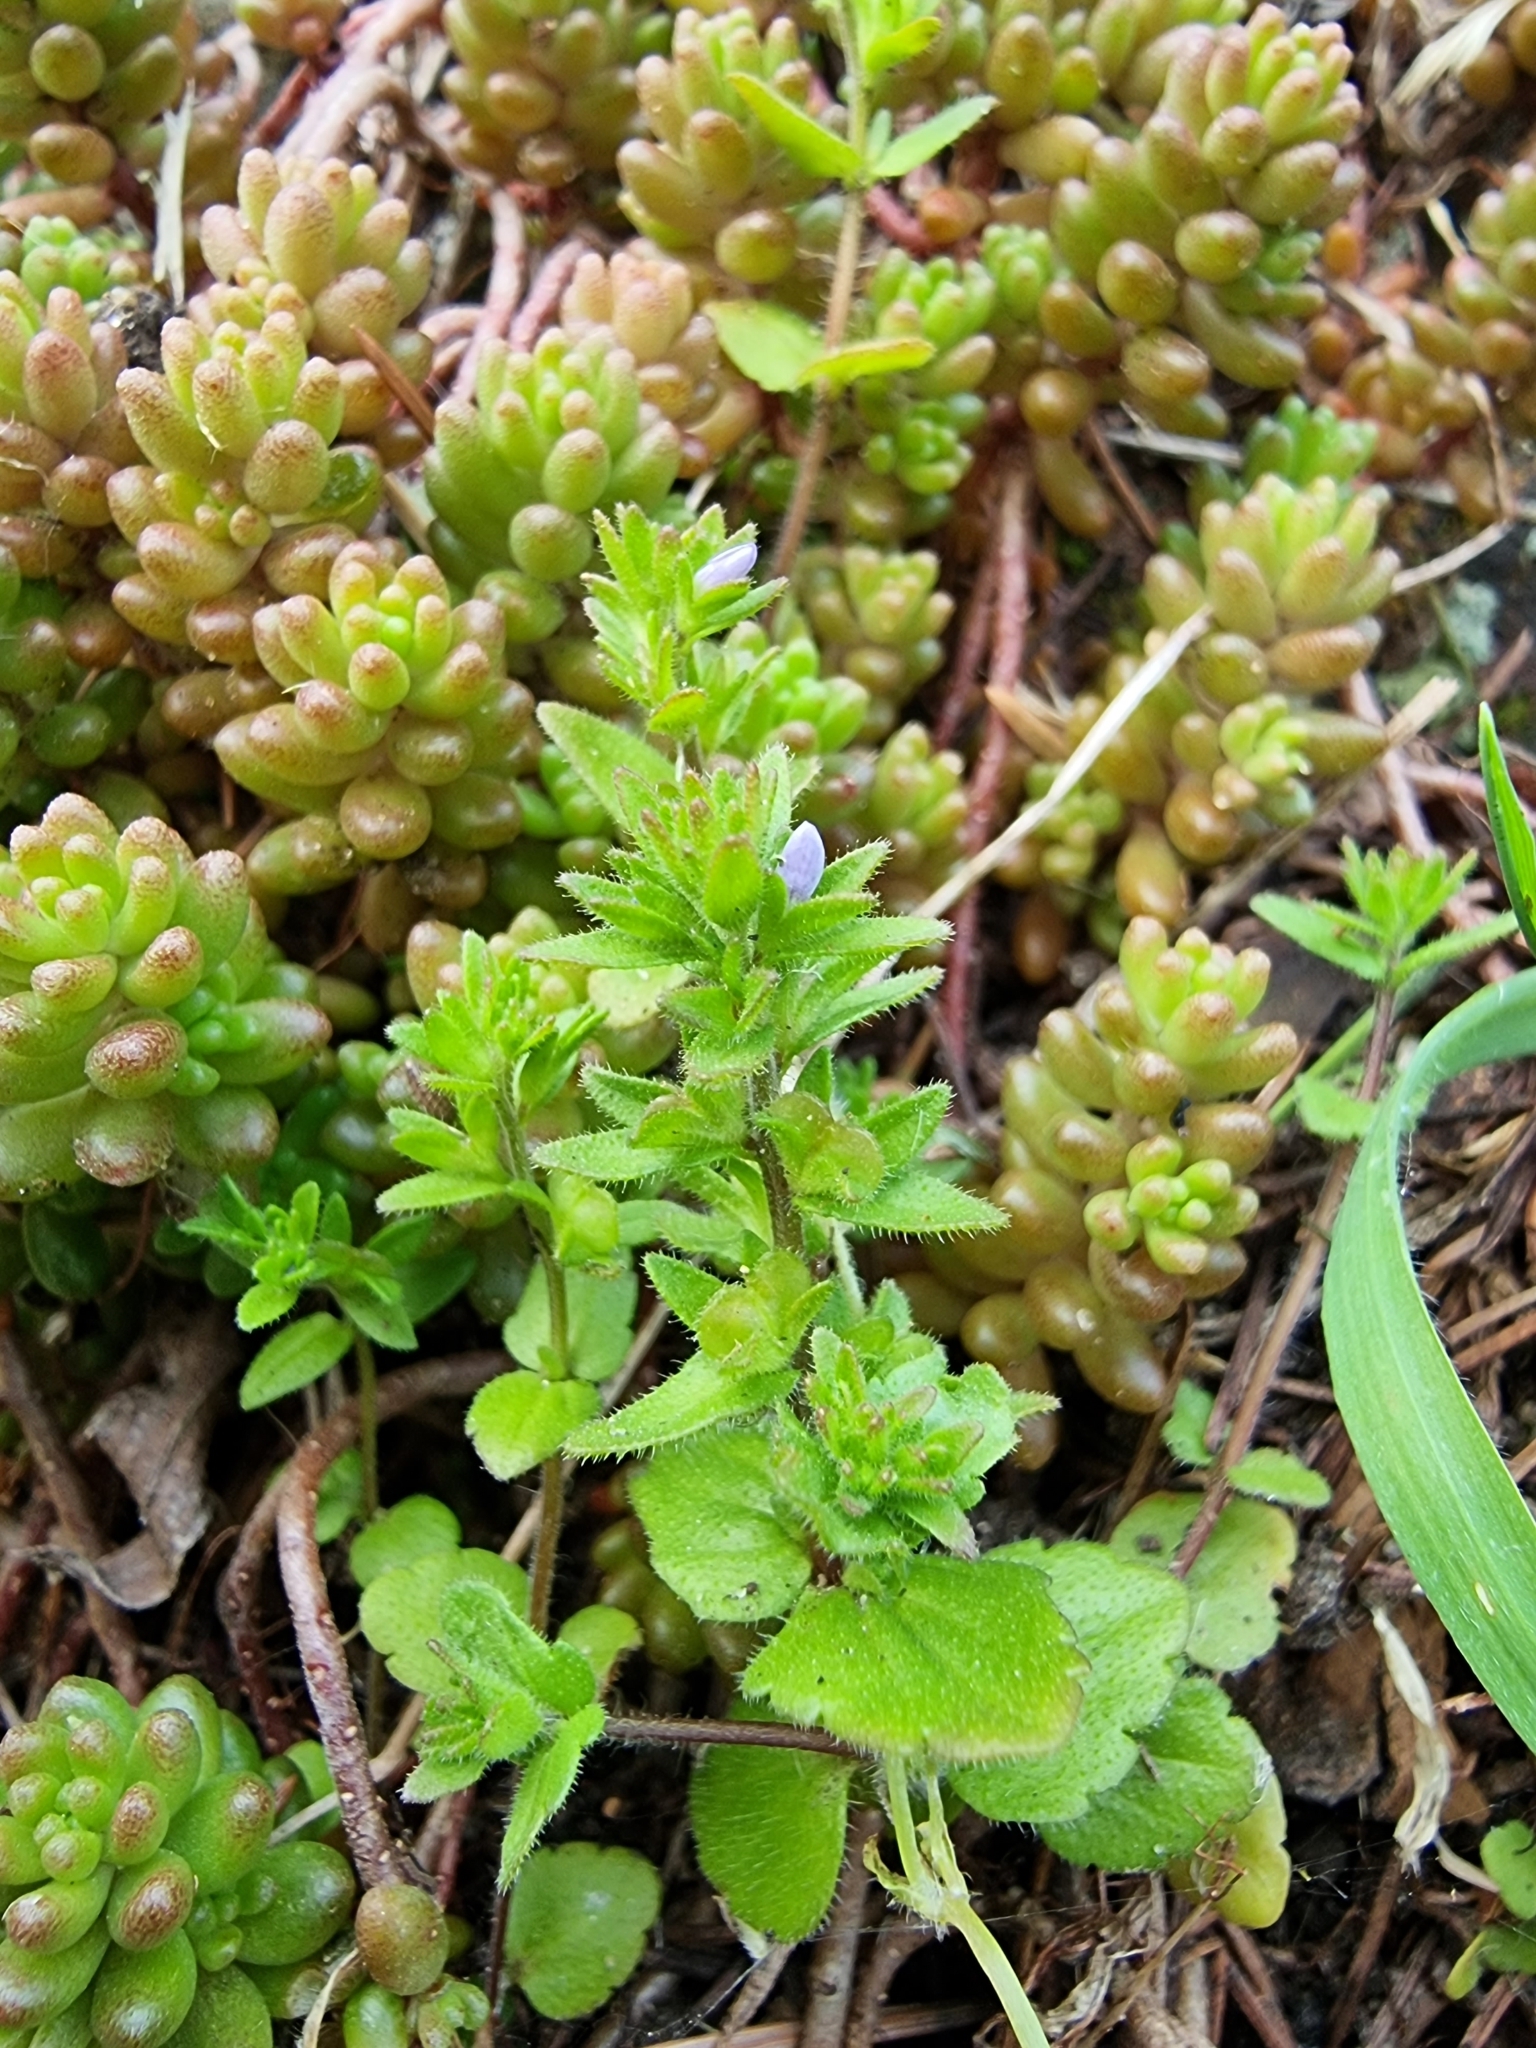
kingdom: Plantae
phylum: Tracheophyta
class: Magnoliopsida
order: Lamiales
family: Plantaginaceae
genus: Veronica
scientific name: Veronica arvensis
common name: Corn speedwell
